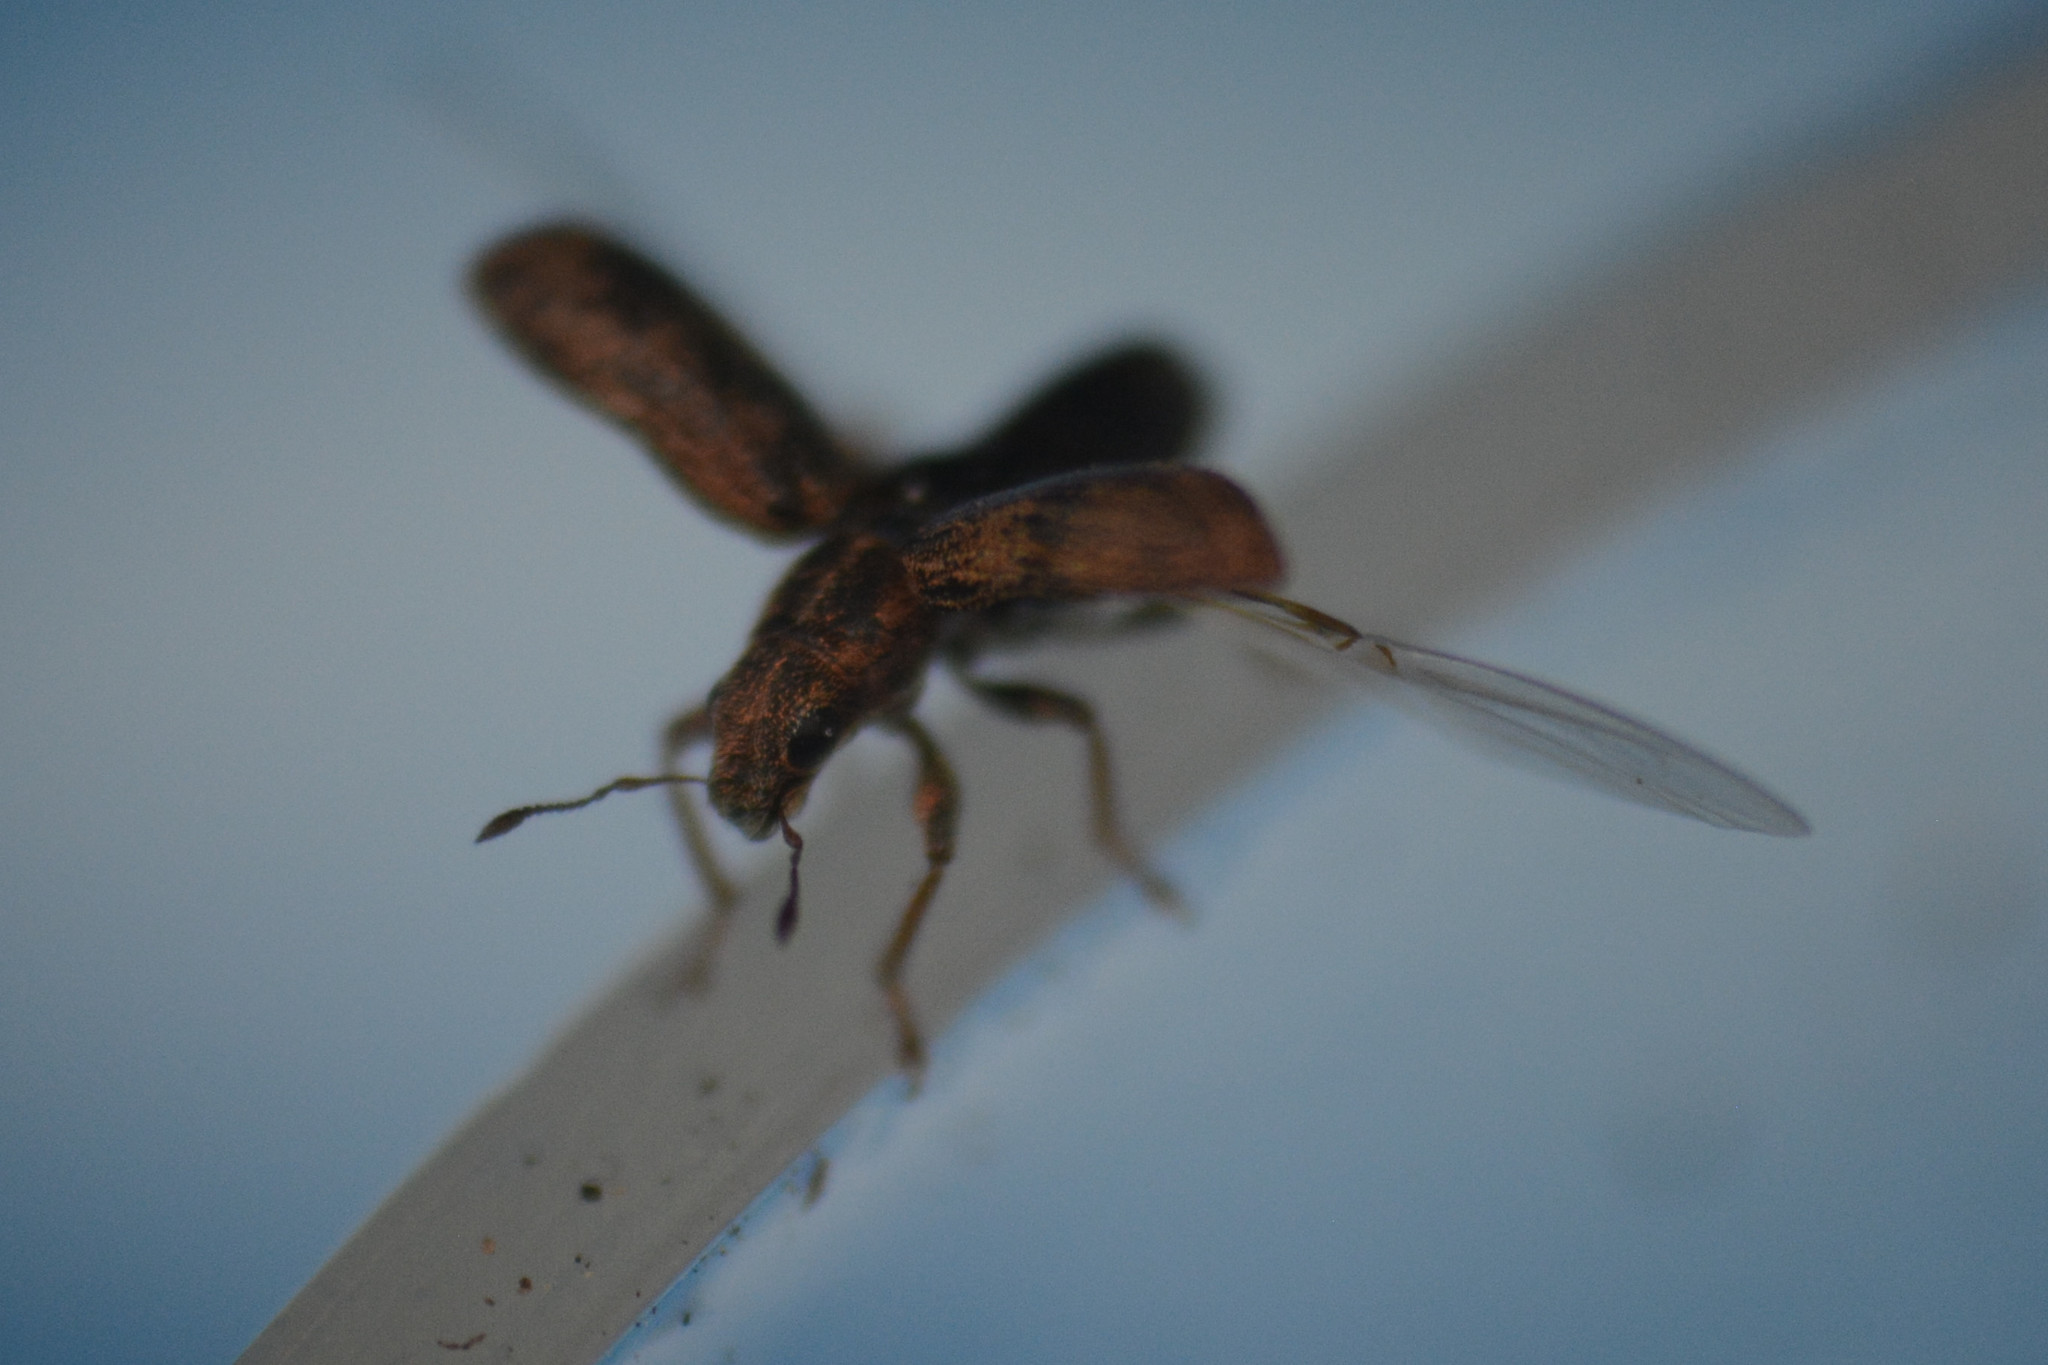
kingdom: Animalia
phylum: Arthropoda
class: Insecta
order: Coleoptera
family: Curculionidae
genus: Sitona
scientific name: Sitona lineatus
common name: Weevil
